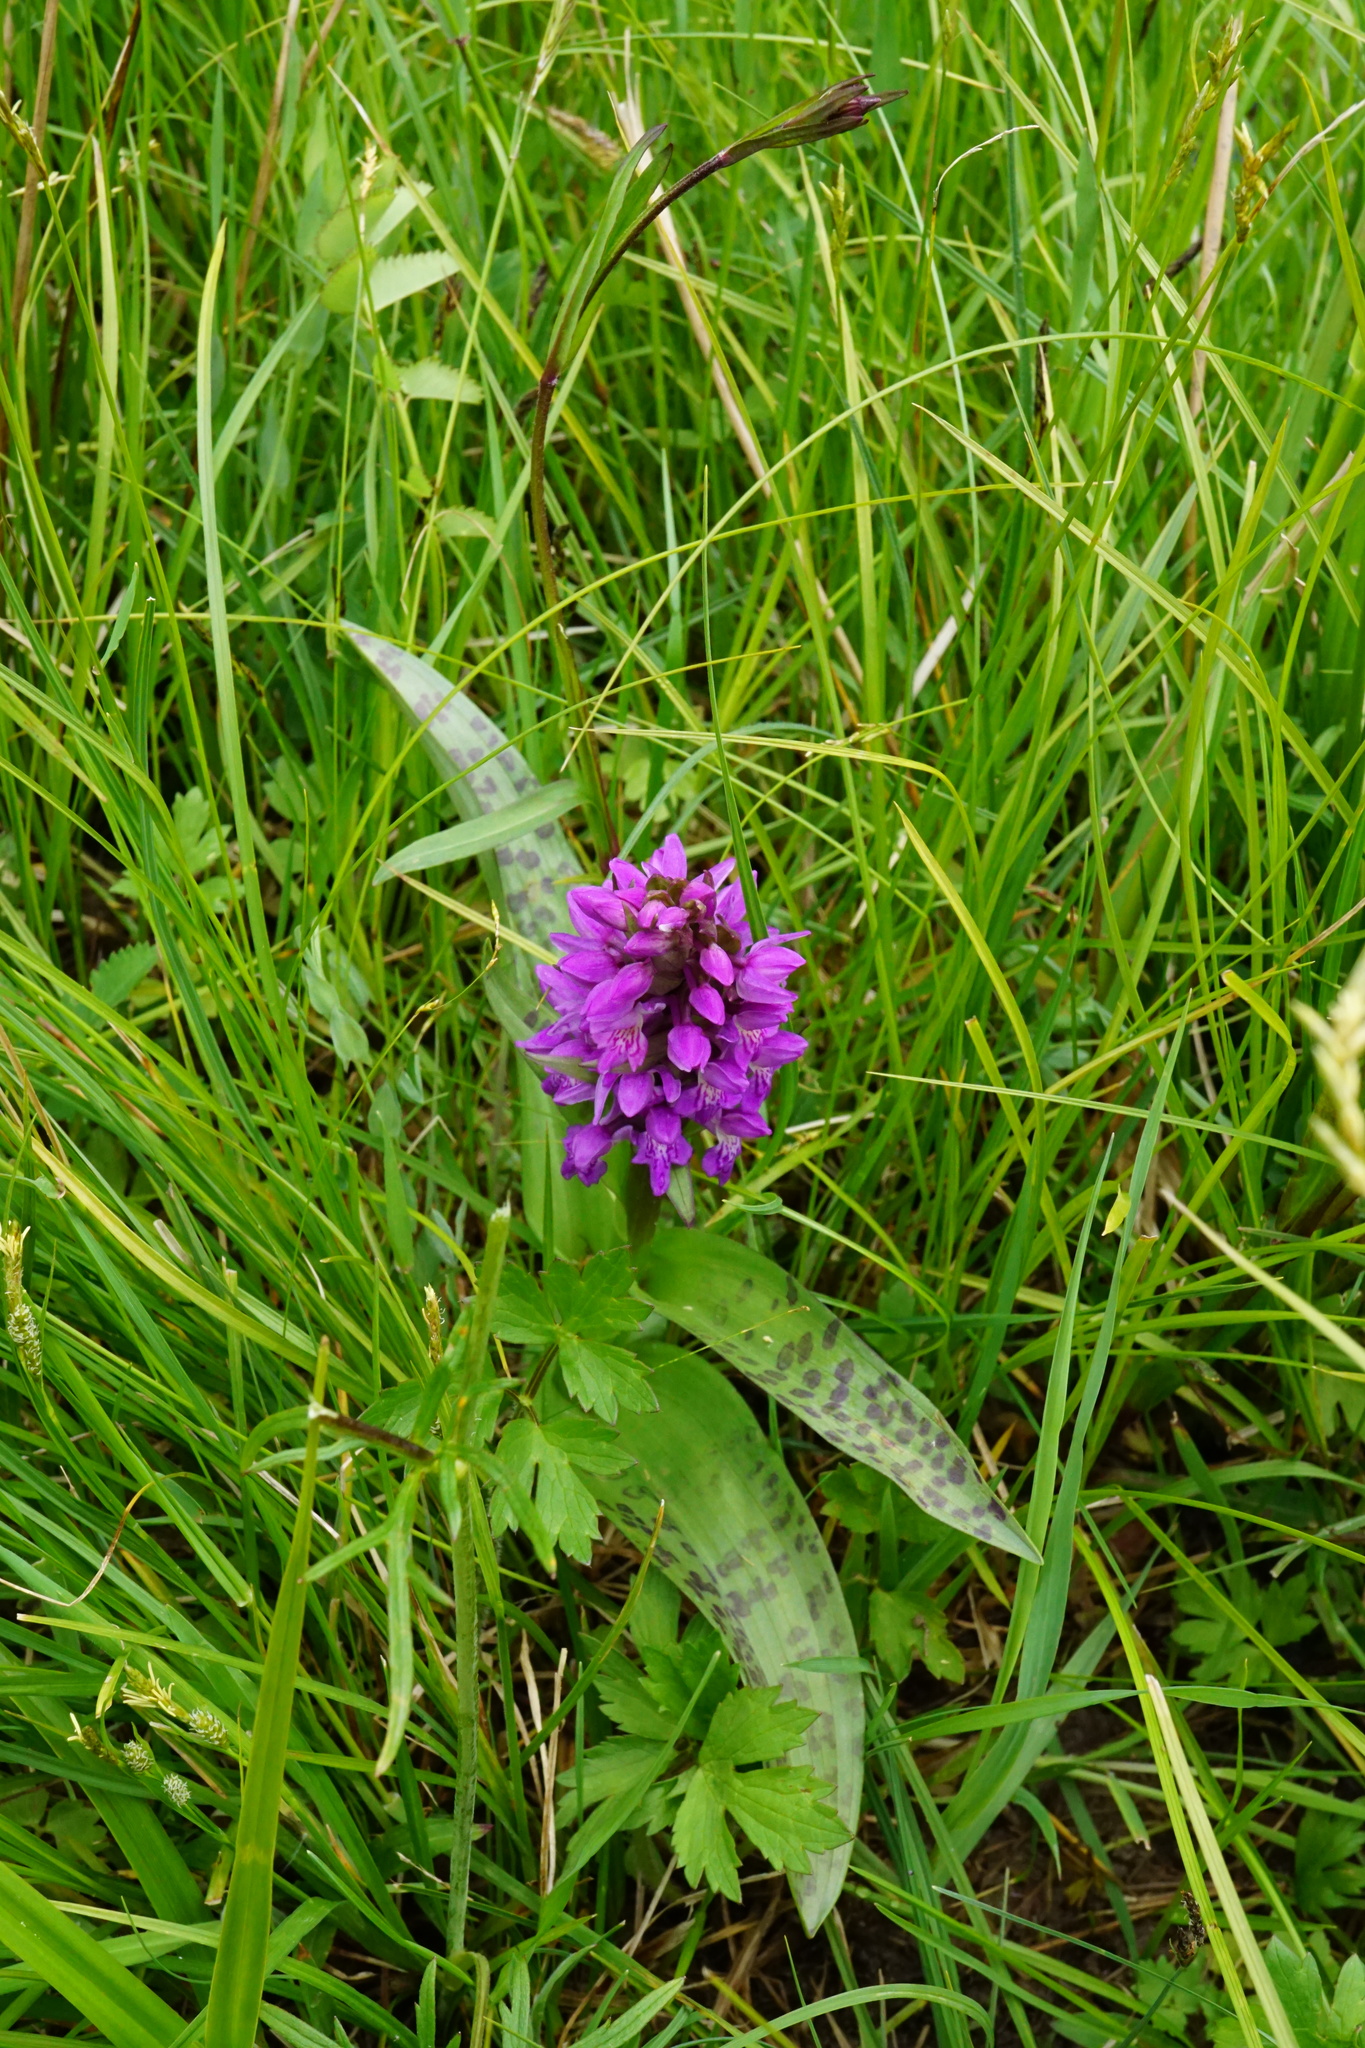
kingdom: Plantae
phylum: Tracheophyta
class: Liliopsida
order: Asparagales
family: Orchidaceae
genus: Dactylorhiza
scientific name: Dactylorhiza majalis
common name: Marsh orchid
